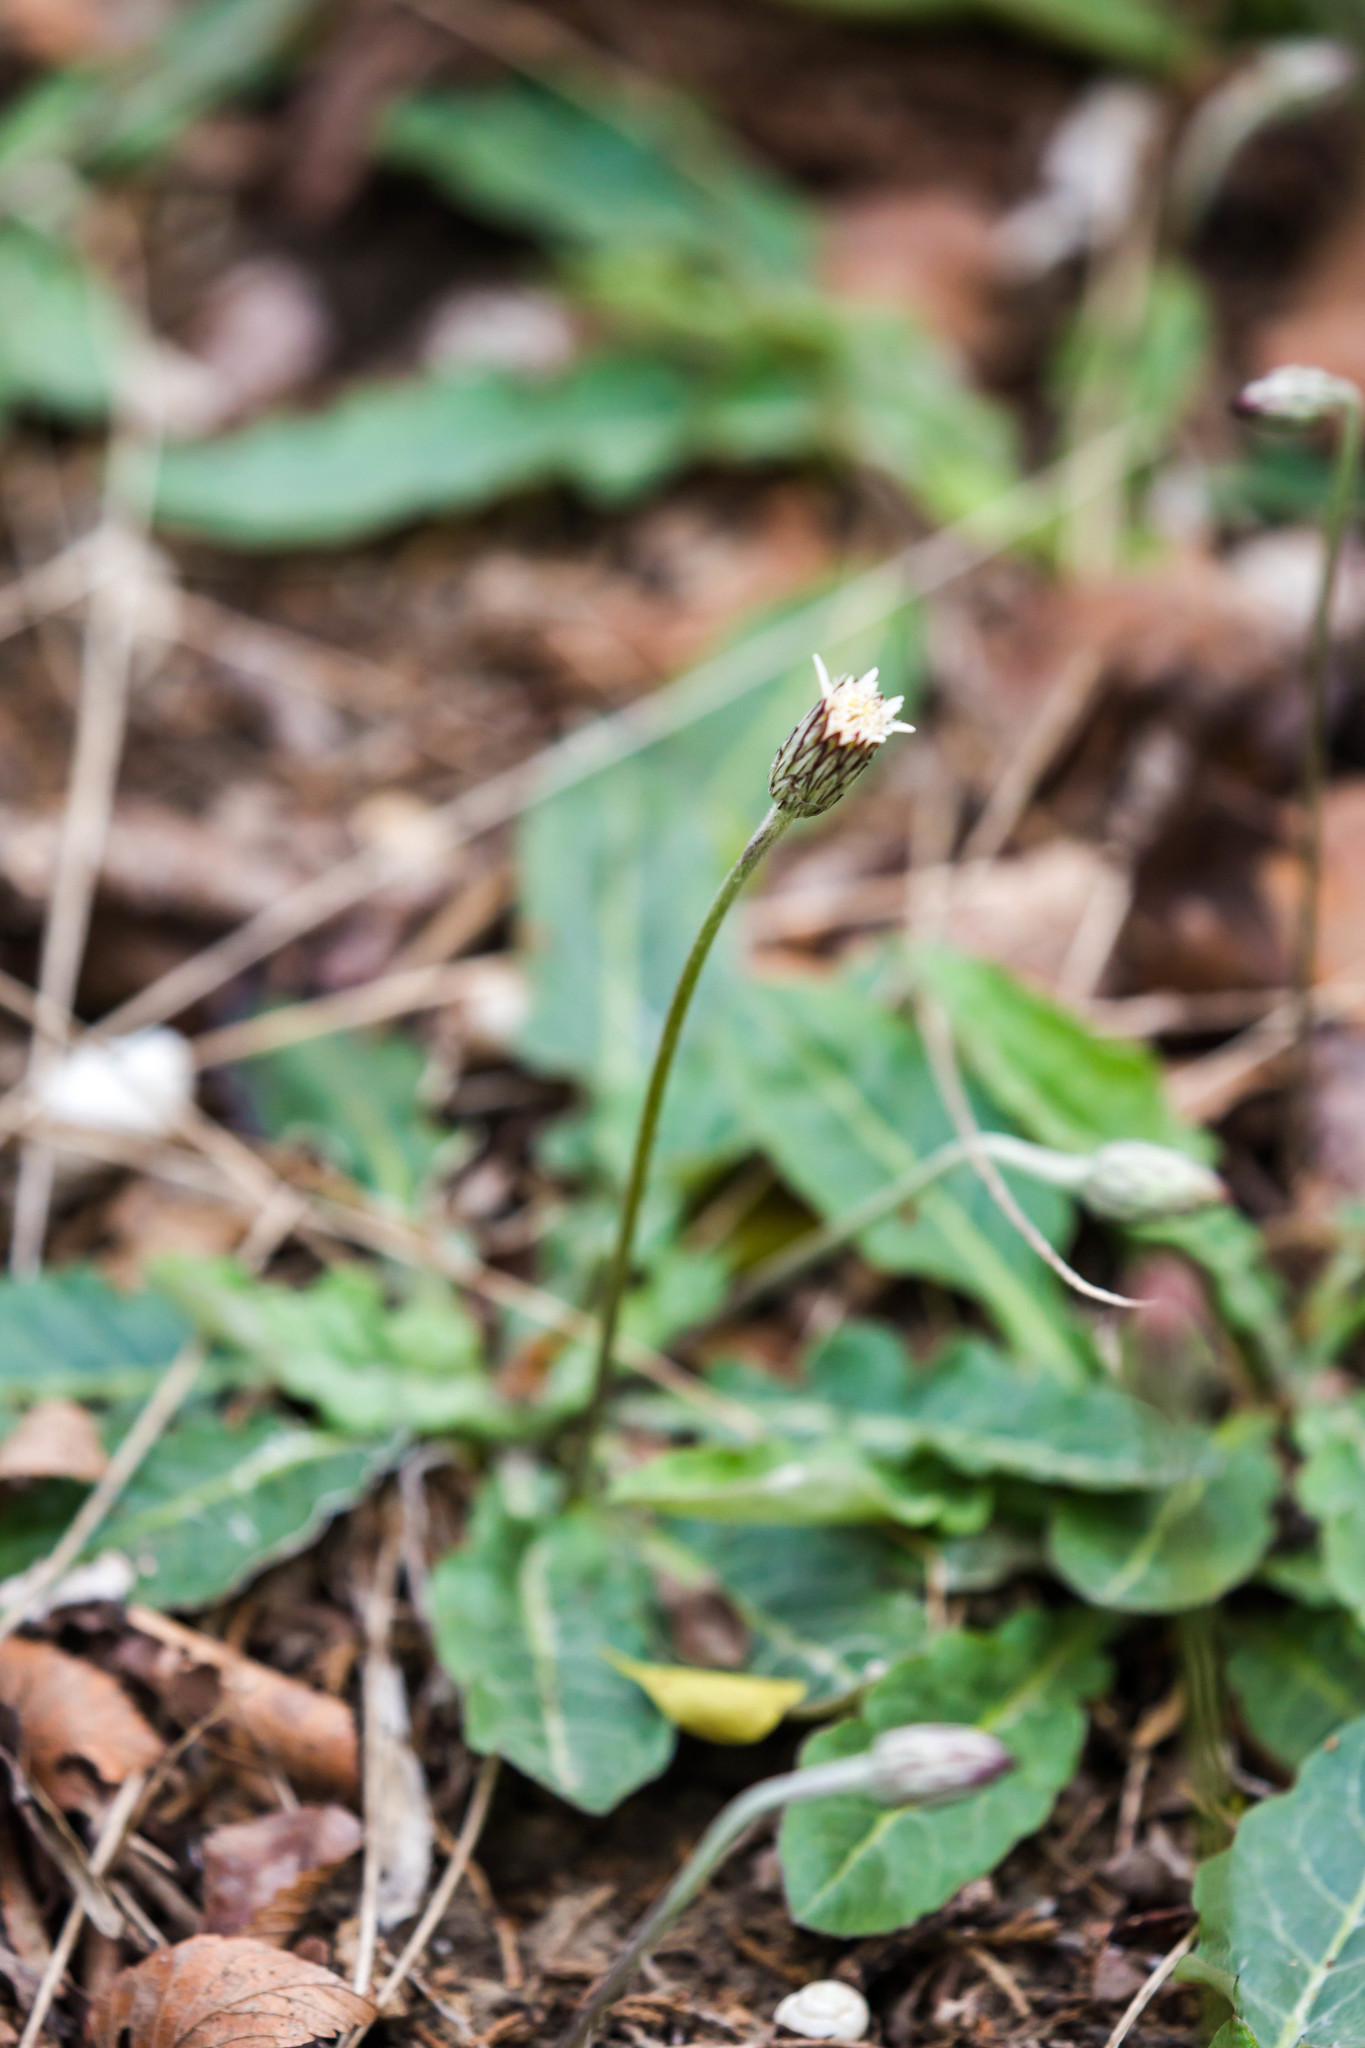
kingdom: Plantae
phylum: Tracheophyta
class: Magnoliopsida
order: Asterales
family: Asteraceae
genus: Chaptalia
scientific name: Chaptalia texana
